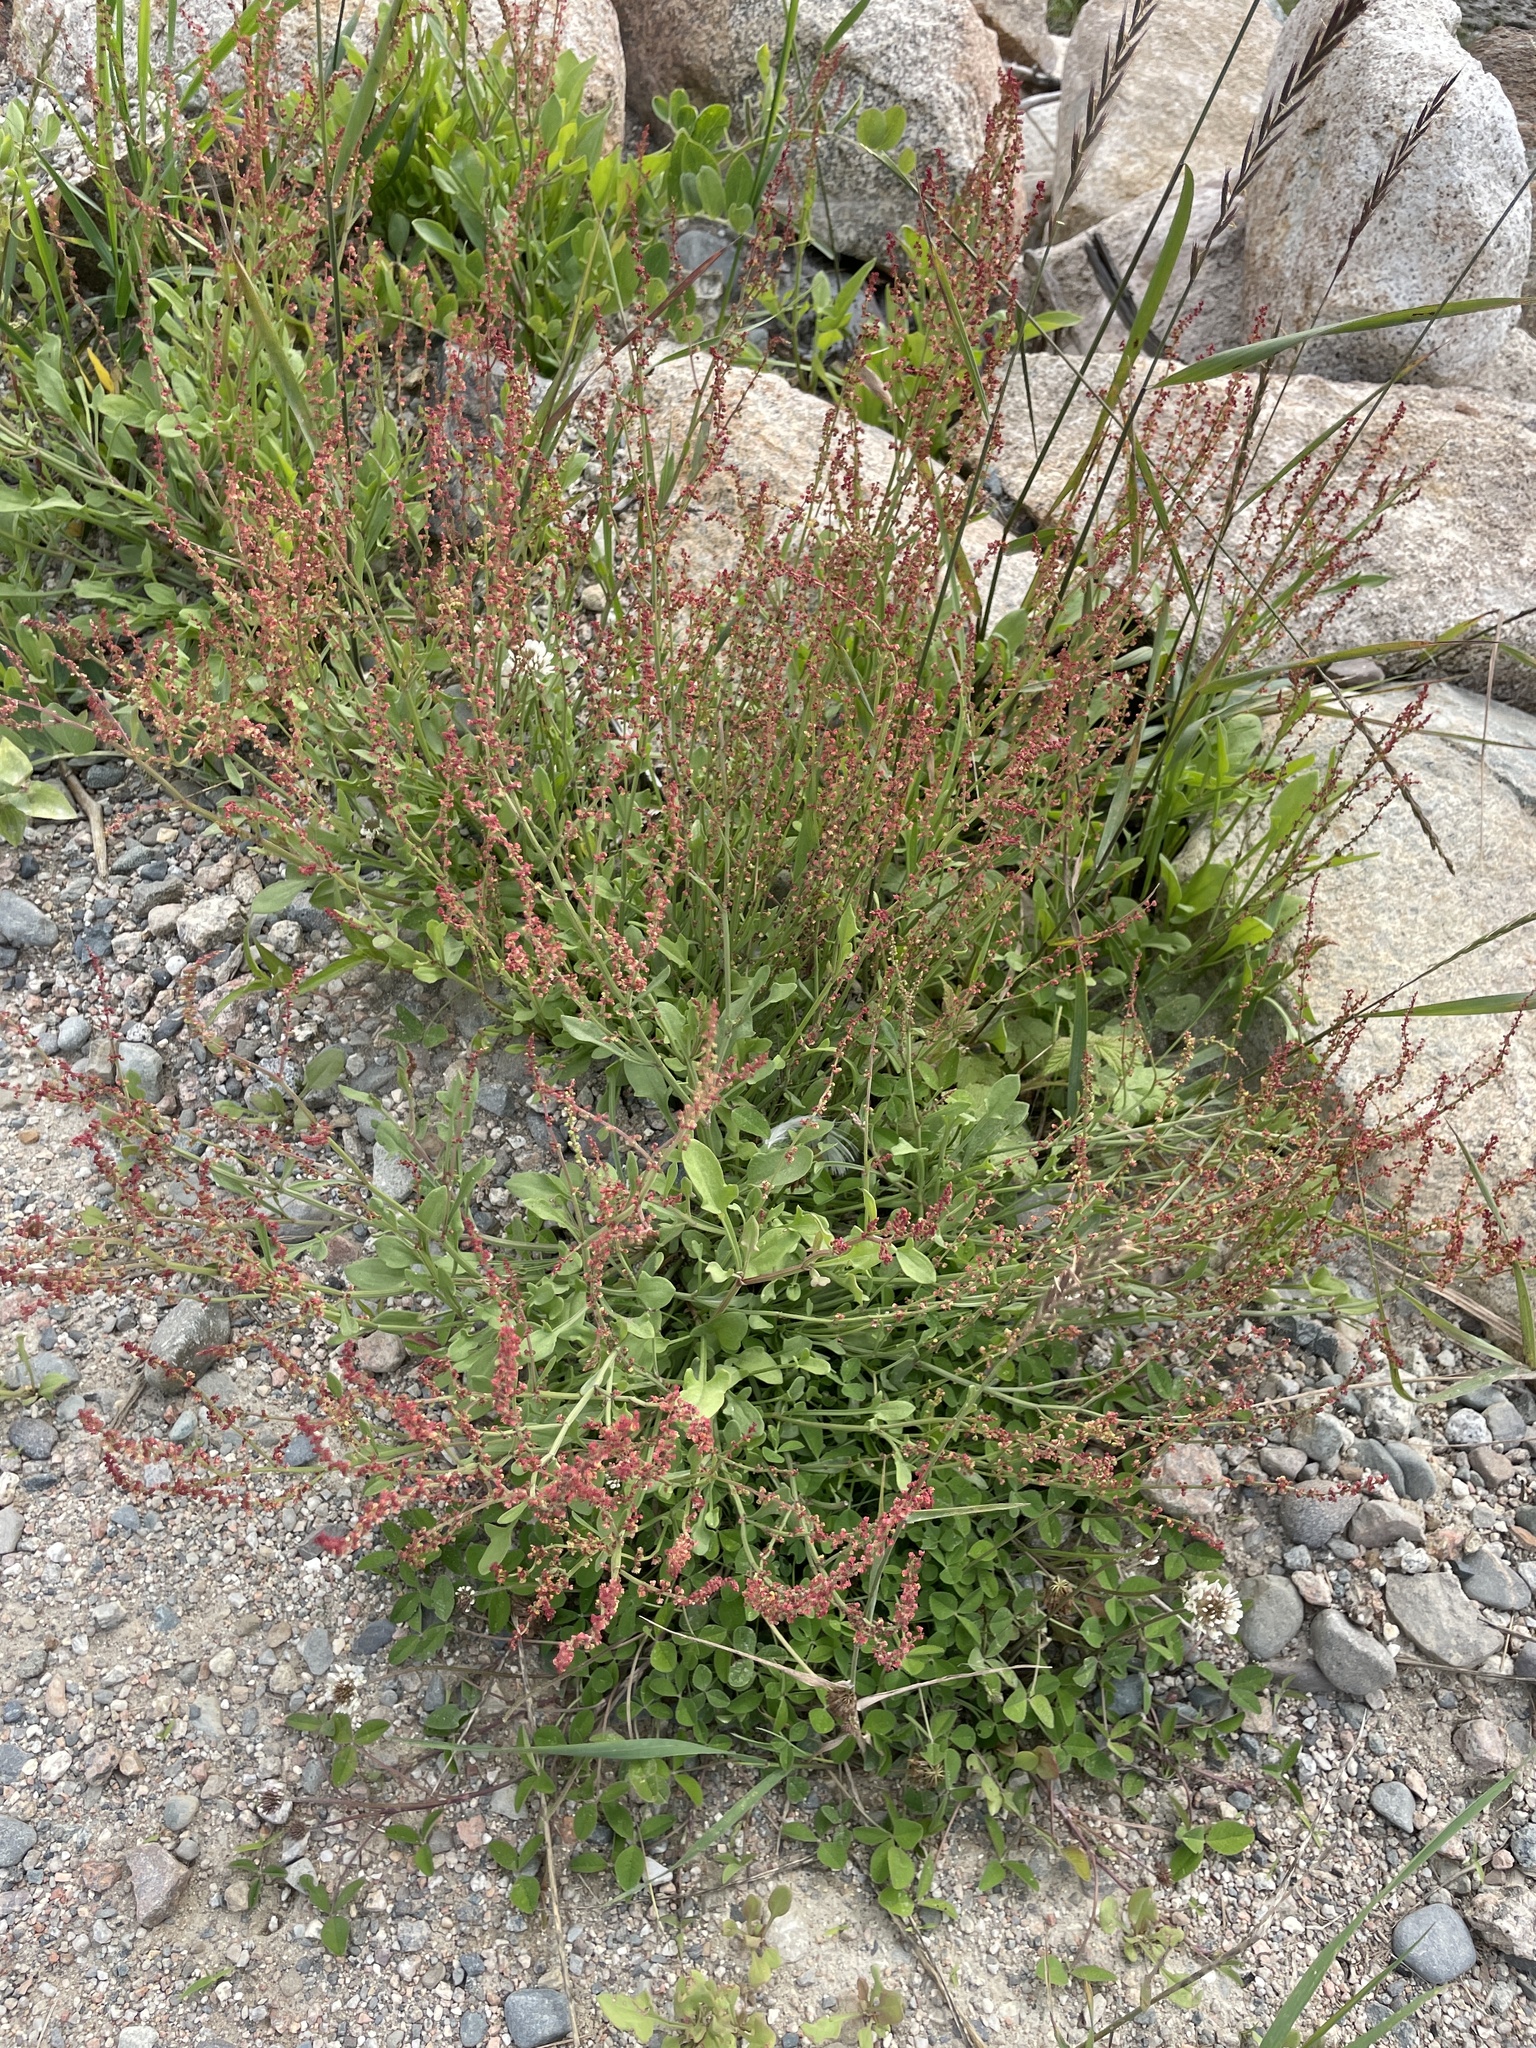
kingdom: Plantae
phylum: Tracheophyta
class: Magnoliopsida
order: Caryophyllales
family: Polygonaceae
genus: Rumex
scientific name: Rumex acetosella
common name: Common sheep sorrel
